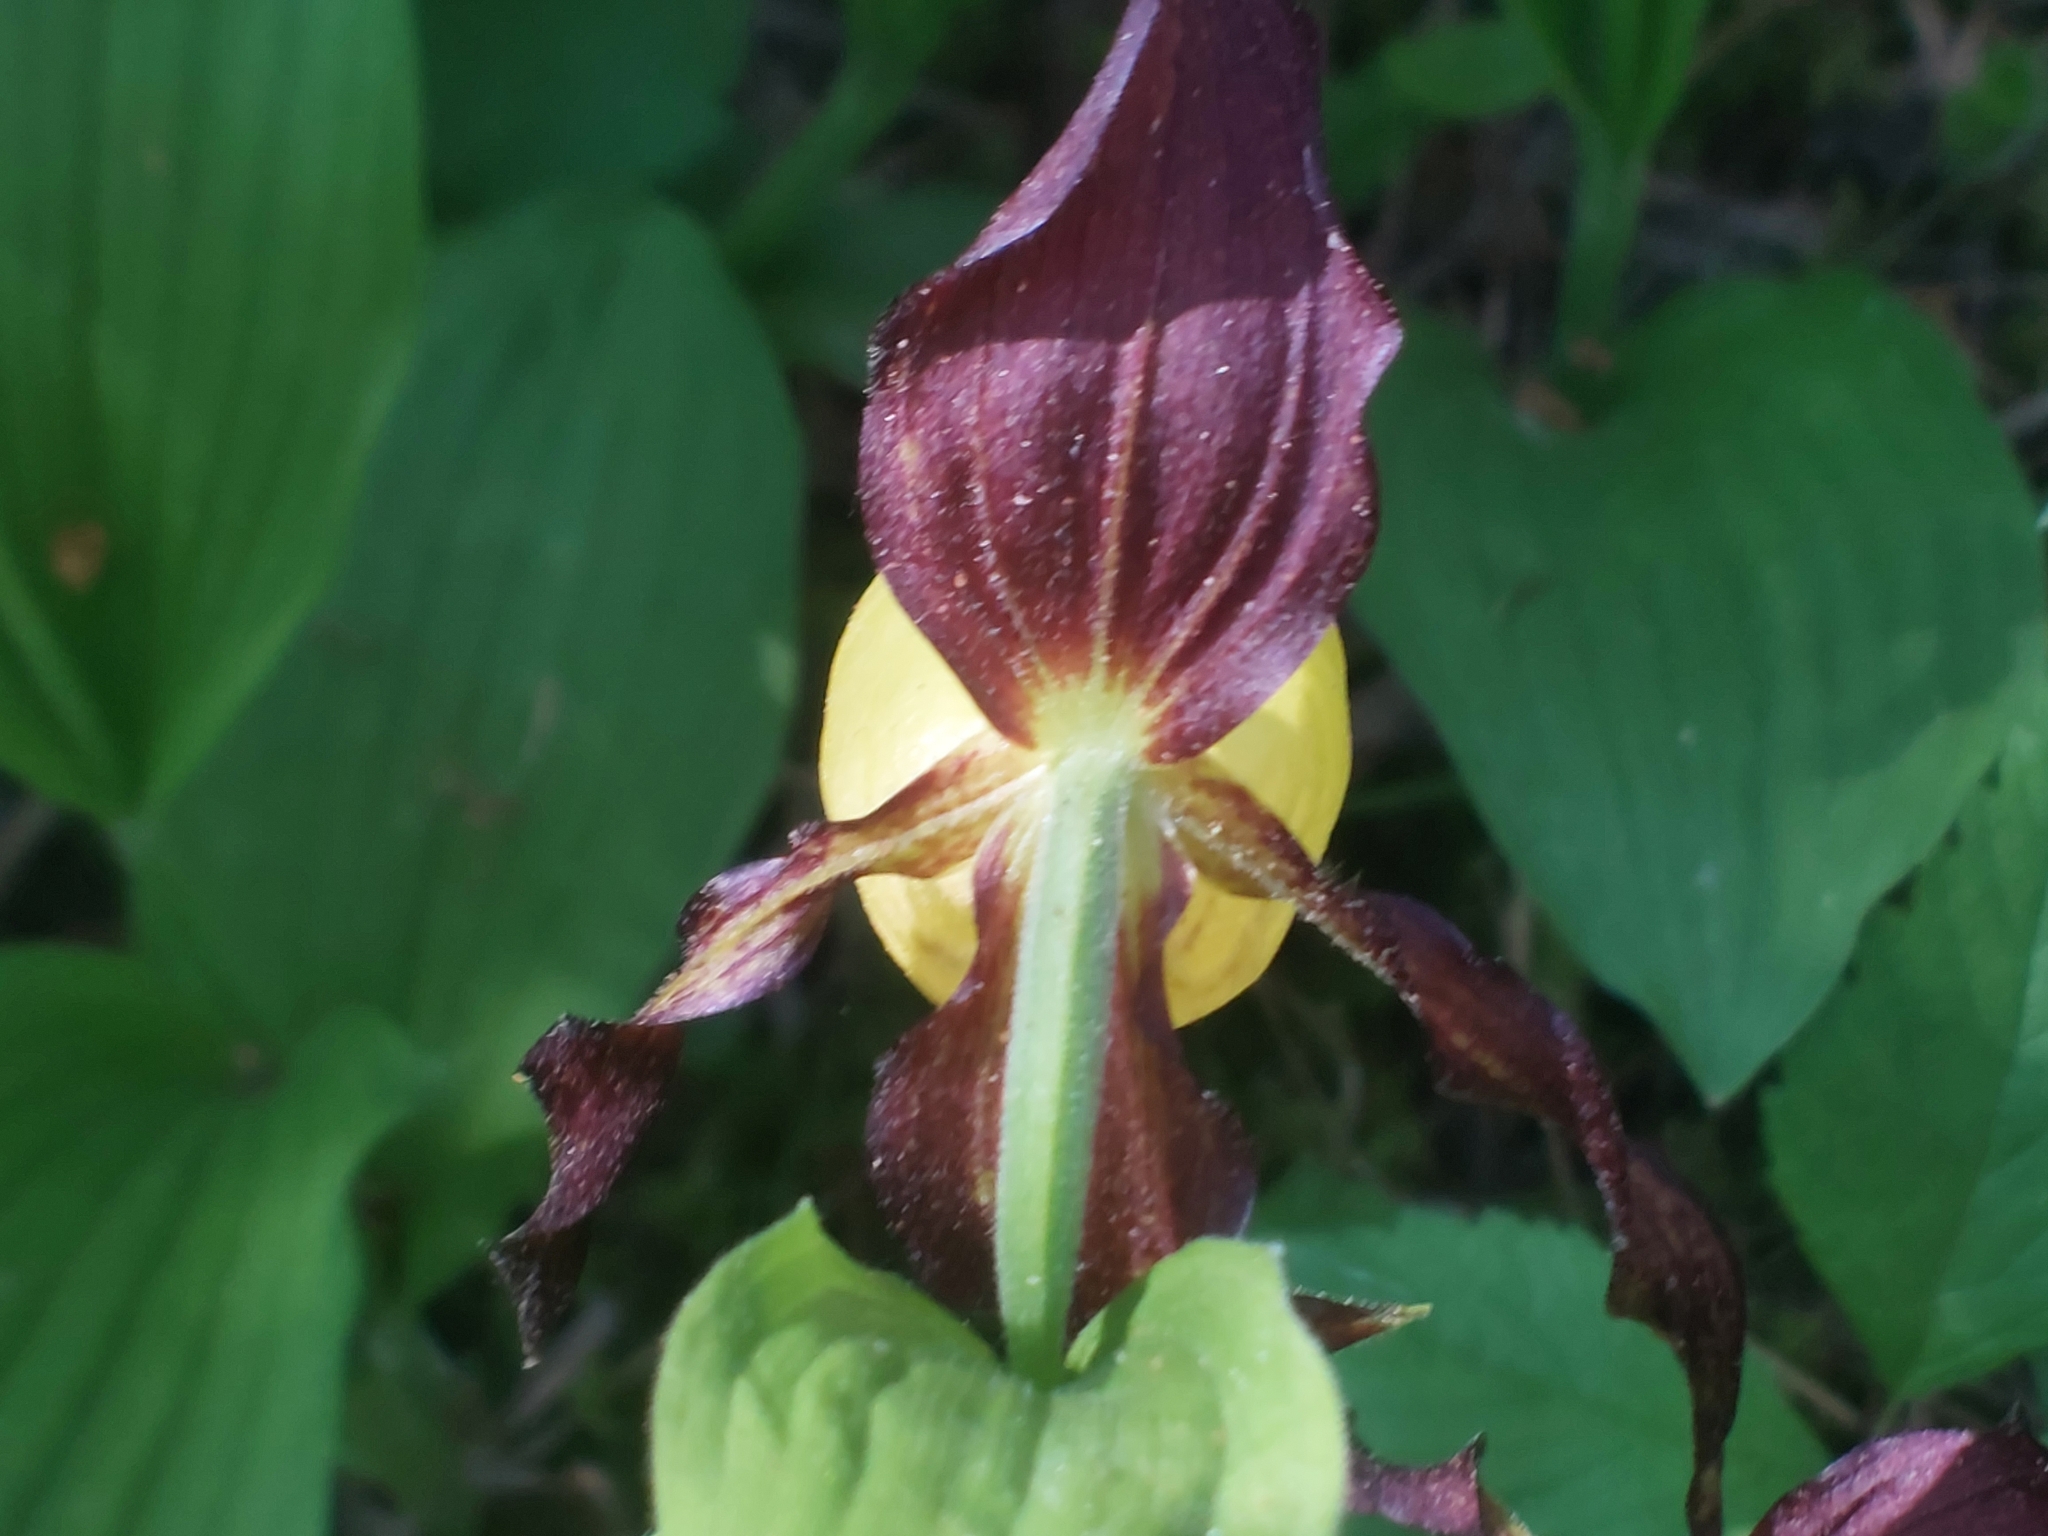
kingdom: Plantae
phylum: Tracheophyta
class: Liliopsida
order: Asparagales
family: Orchidaceae
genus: Cypripedium
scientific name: Cypripedium calceolus
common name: Lady's-slipper
